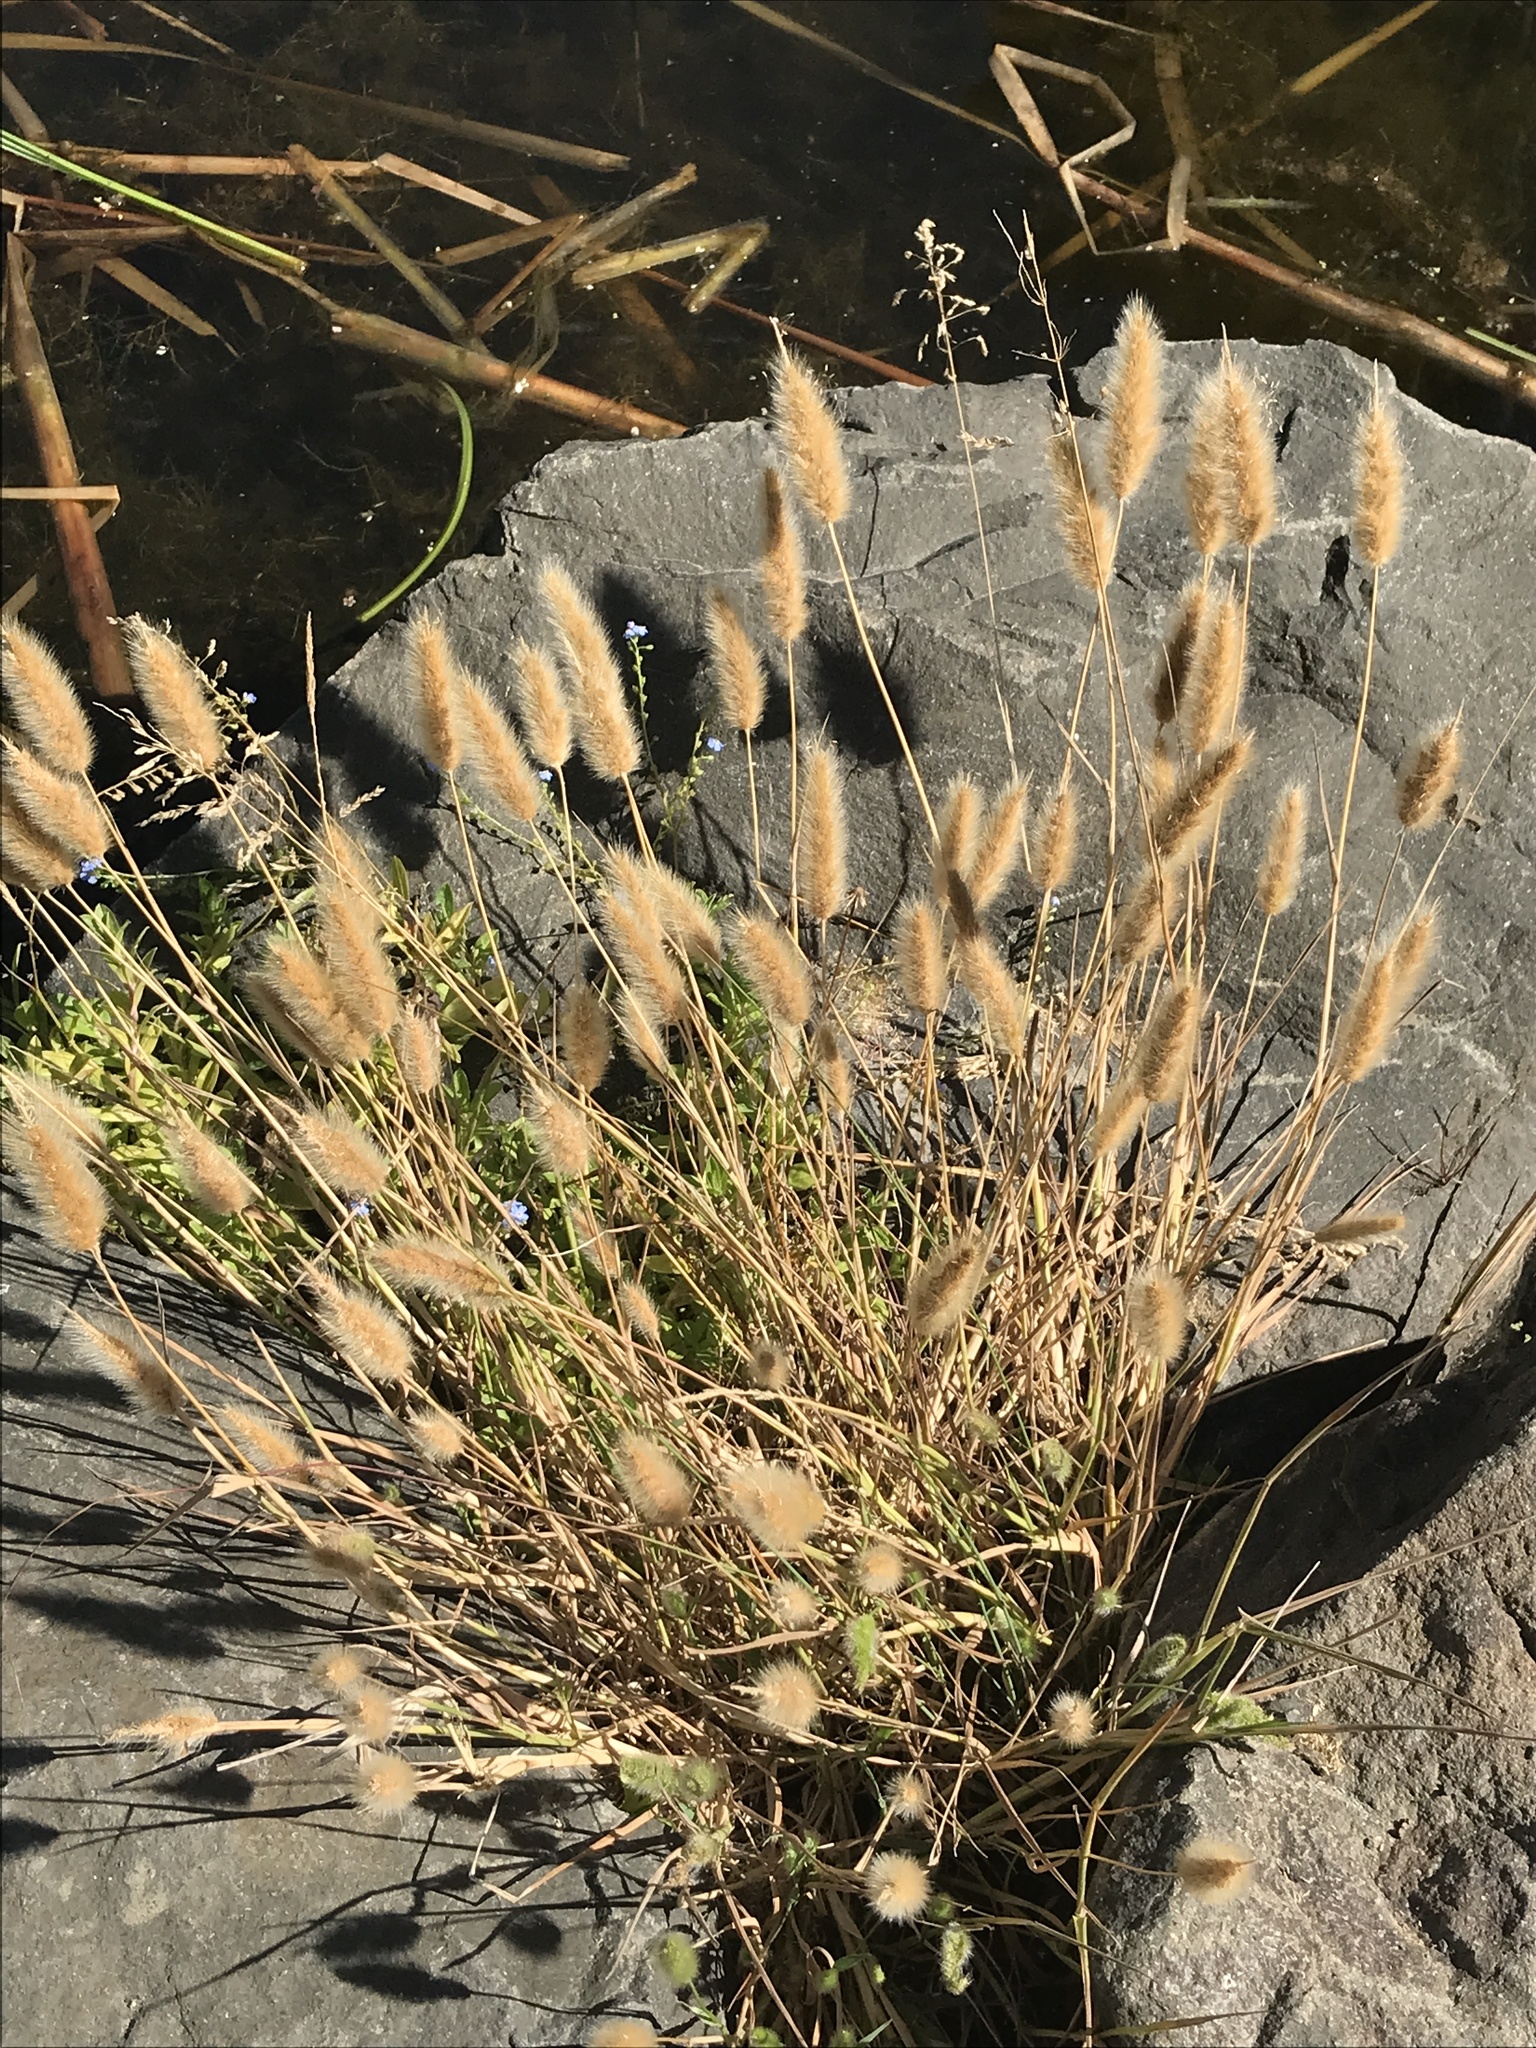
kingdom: Plantae
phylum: Tracheophyta
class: Liliopsida
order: Poales
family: Poaceae
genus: Polypogon
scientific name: Polypogon monspeliensis
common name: Annual rabbitsfoot grass
